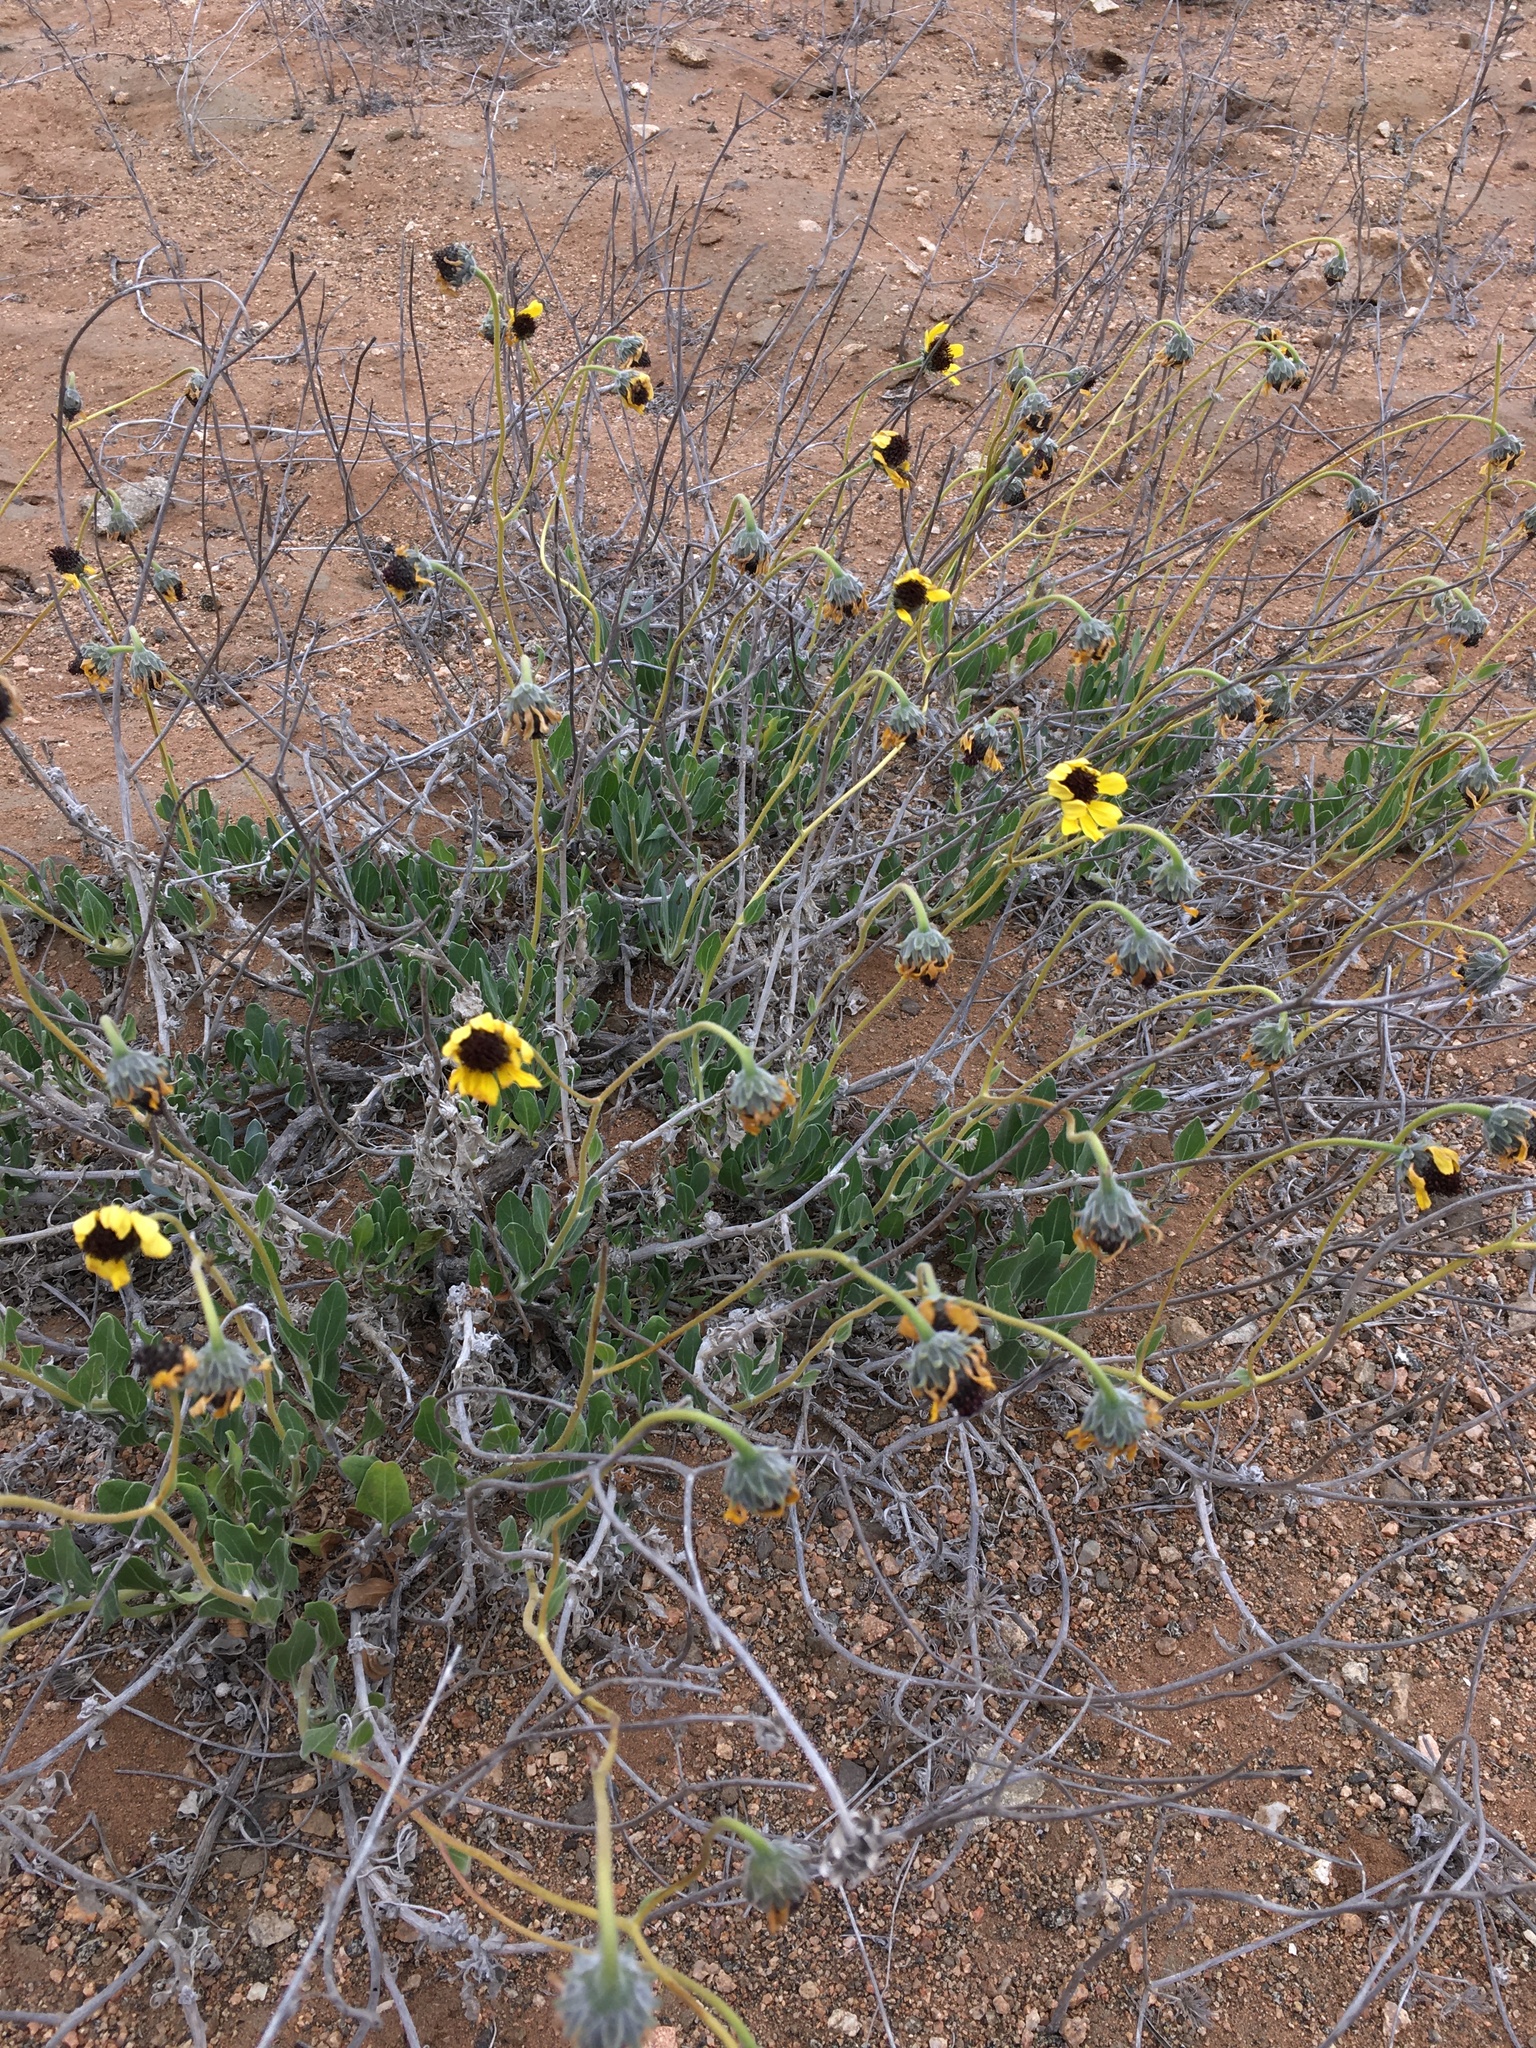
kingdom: Plantae
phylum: Tracheophyta
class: Magnoliopsida
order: Asterales
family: Asteraceae
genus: Encelia
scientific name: Encelia canescens
